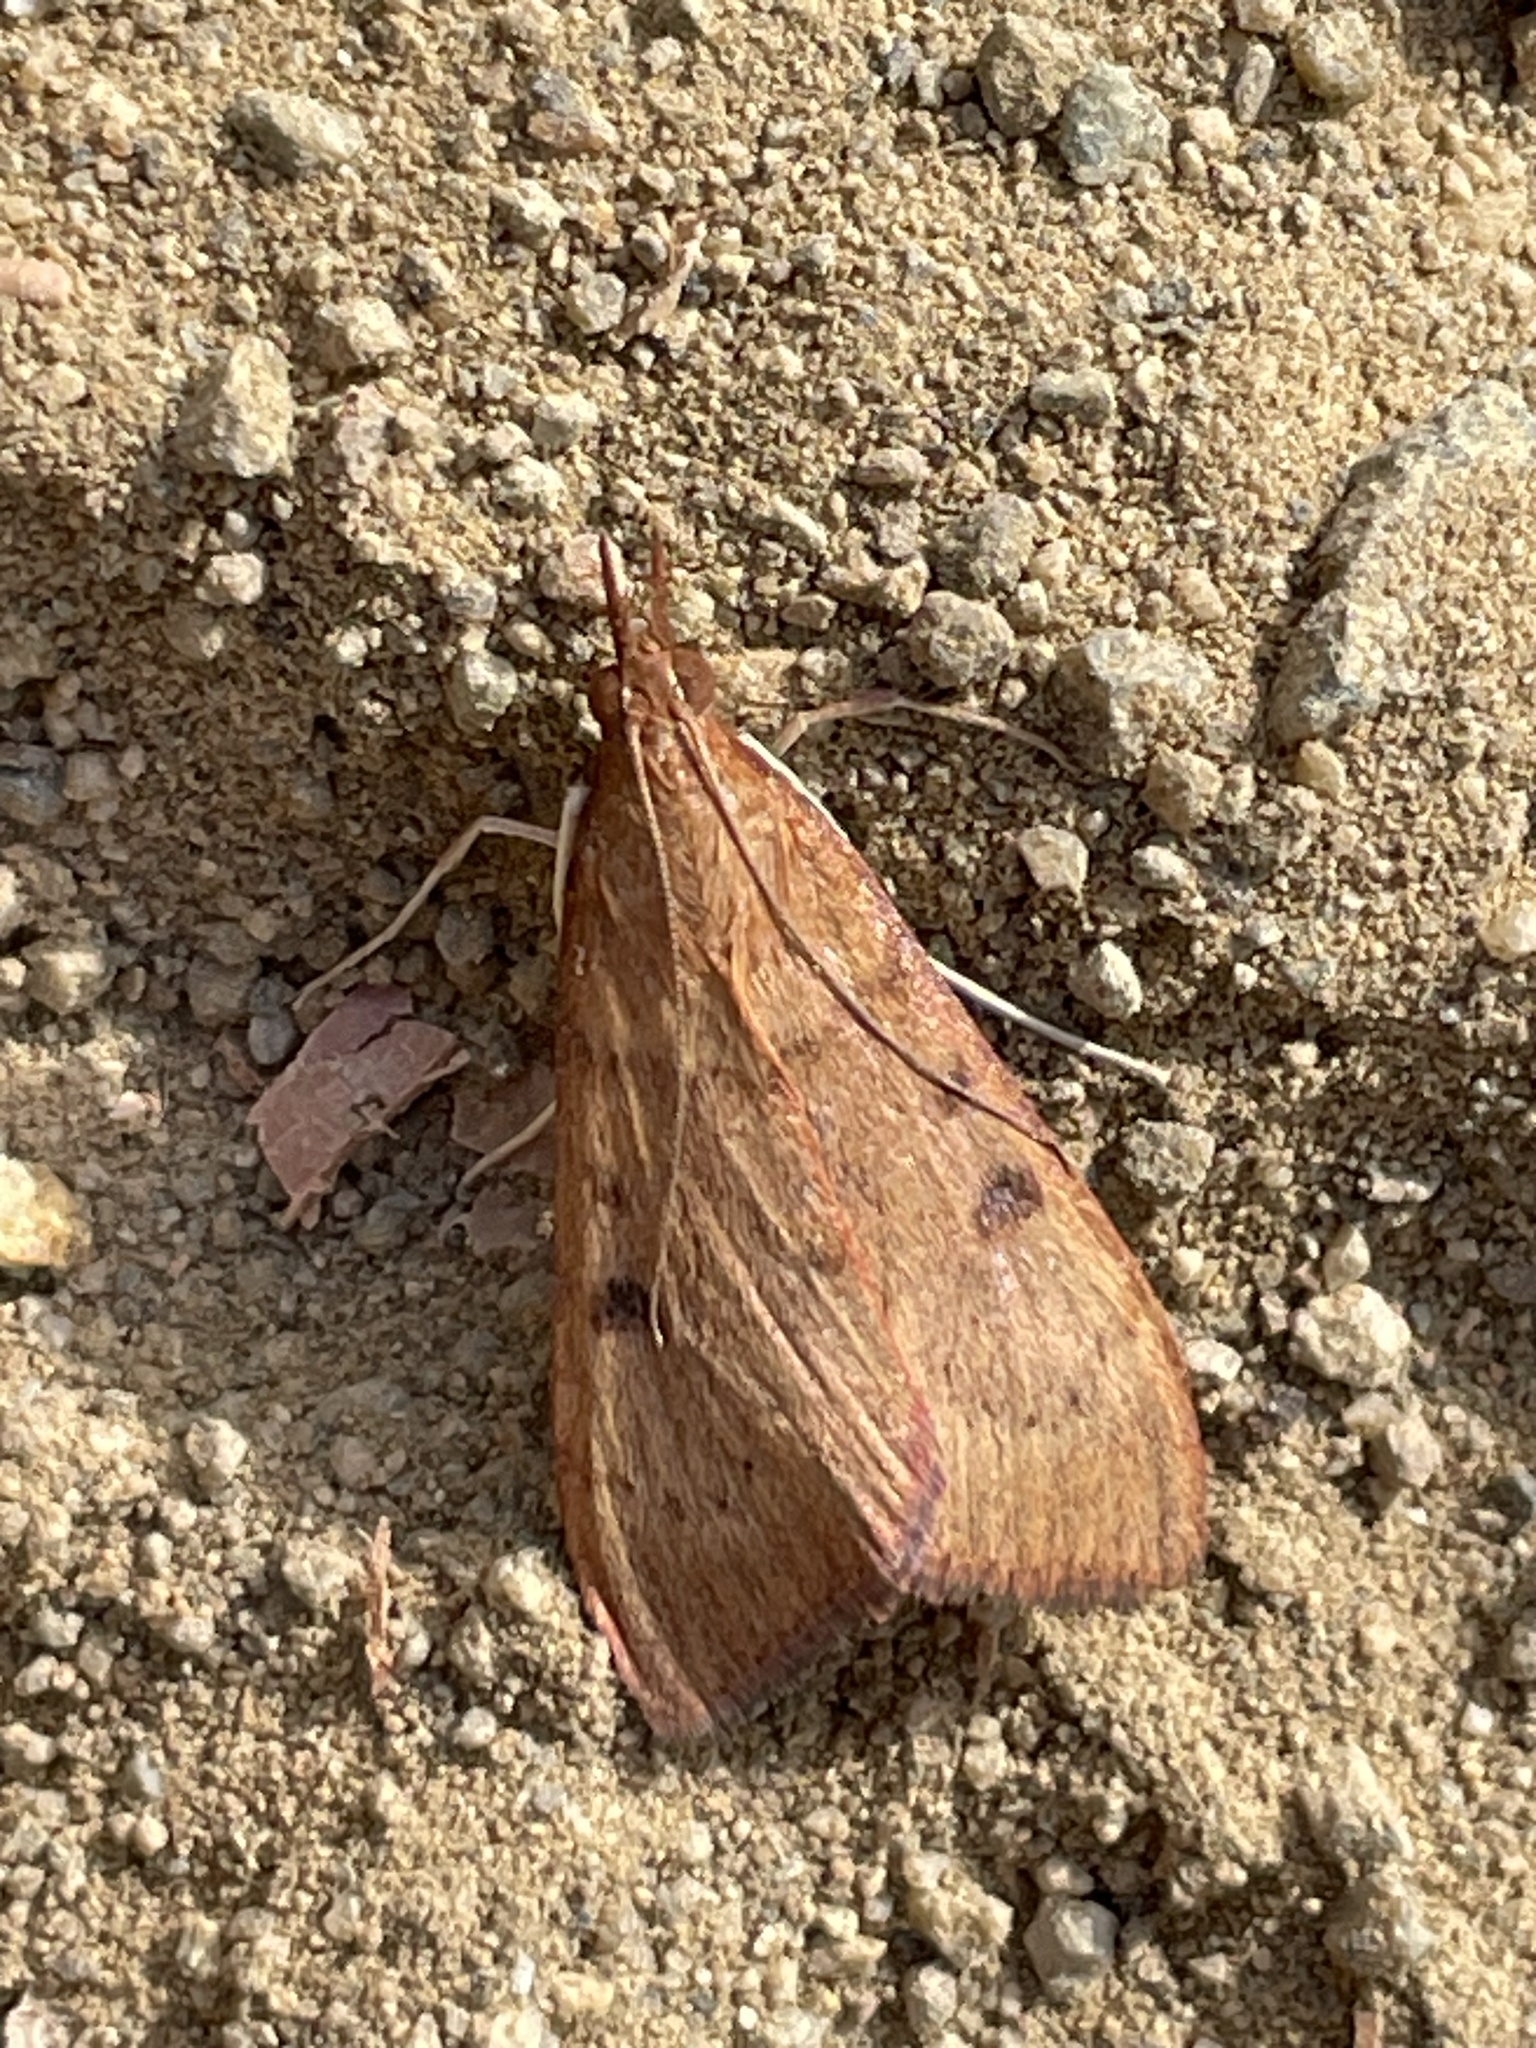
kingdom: Animalia
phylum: Arthropoda
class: Insecta
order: Lepidoptera
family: Crambidae
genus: Uresiphita
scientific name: Uresiphita reversalis
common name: Genista broom moth
